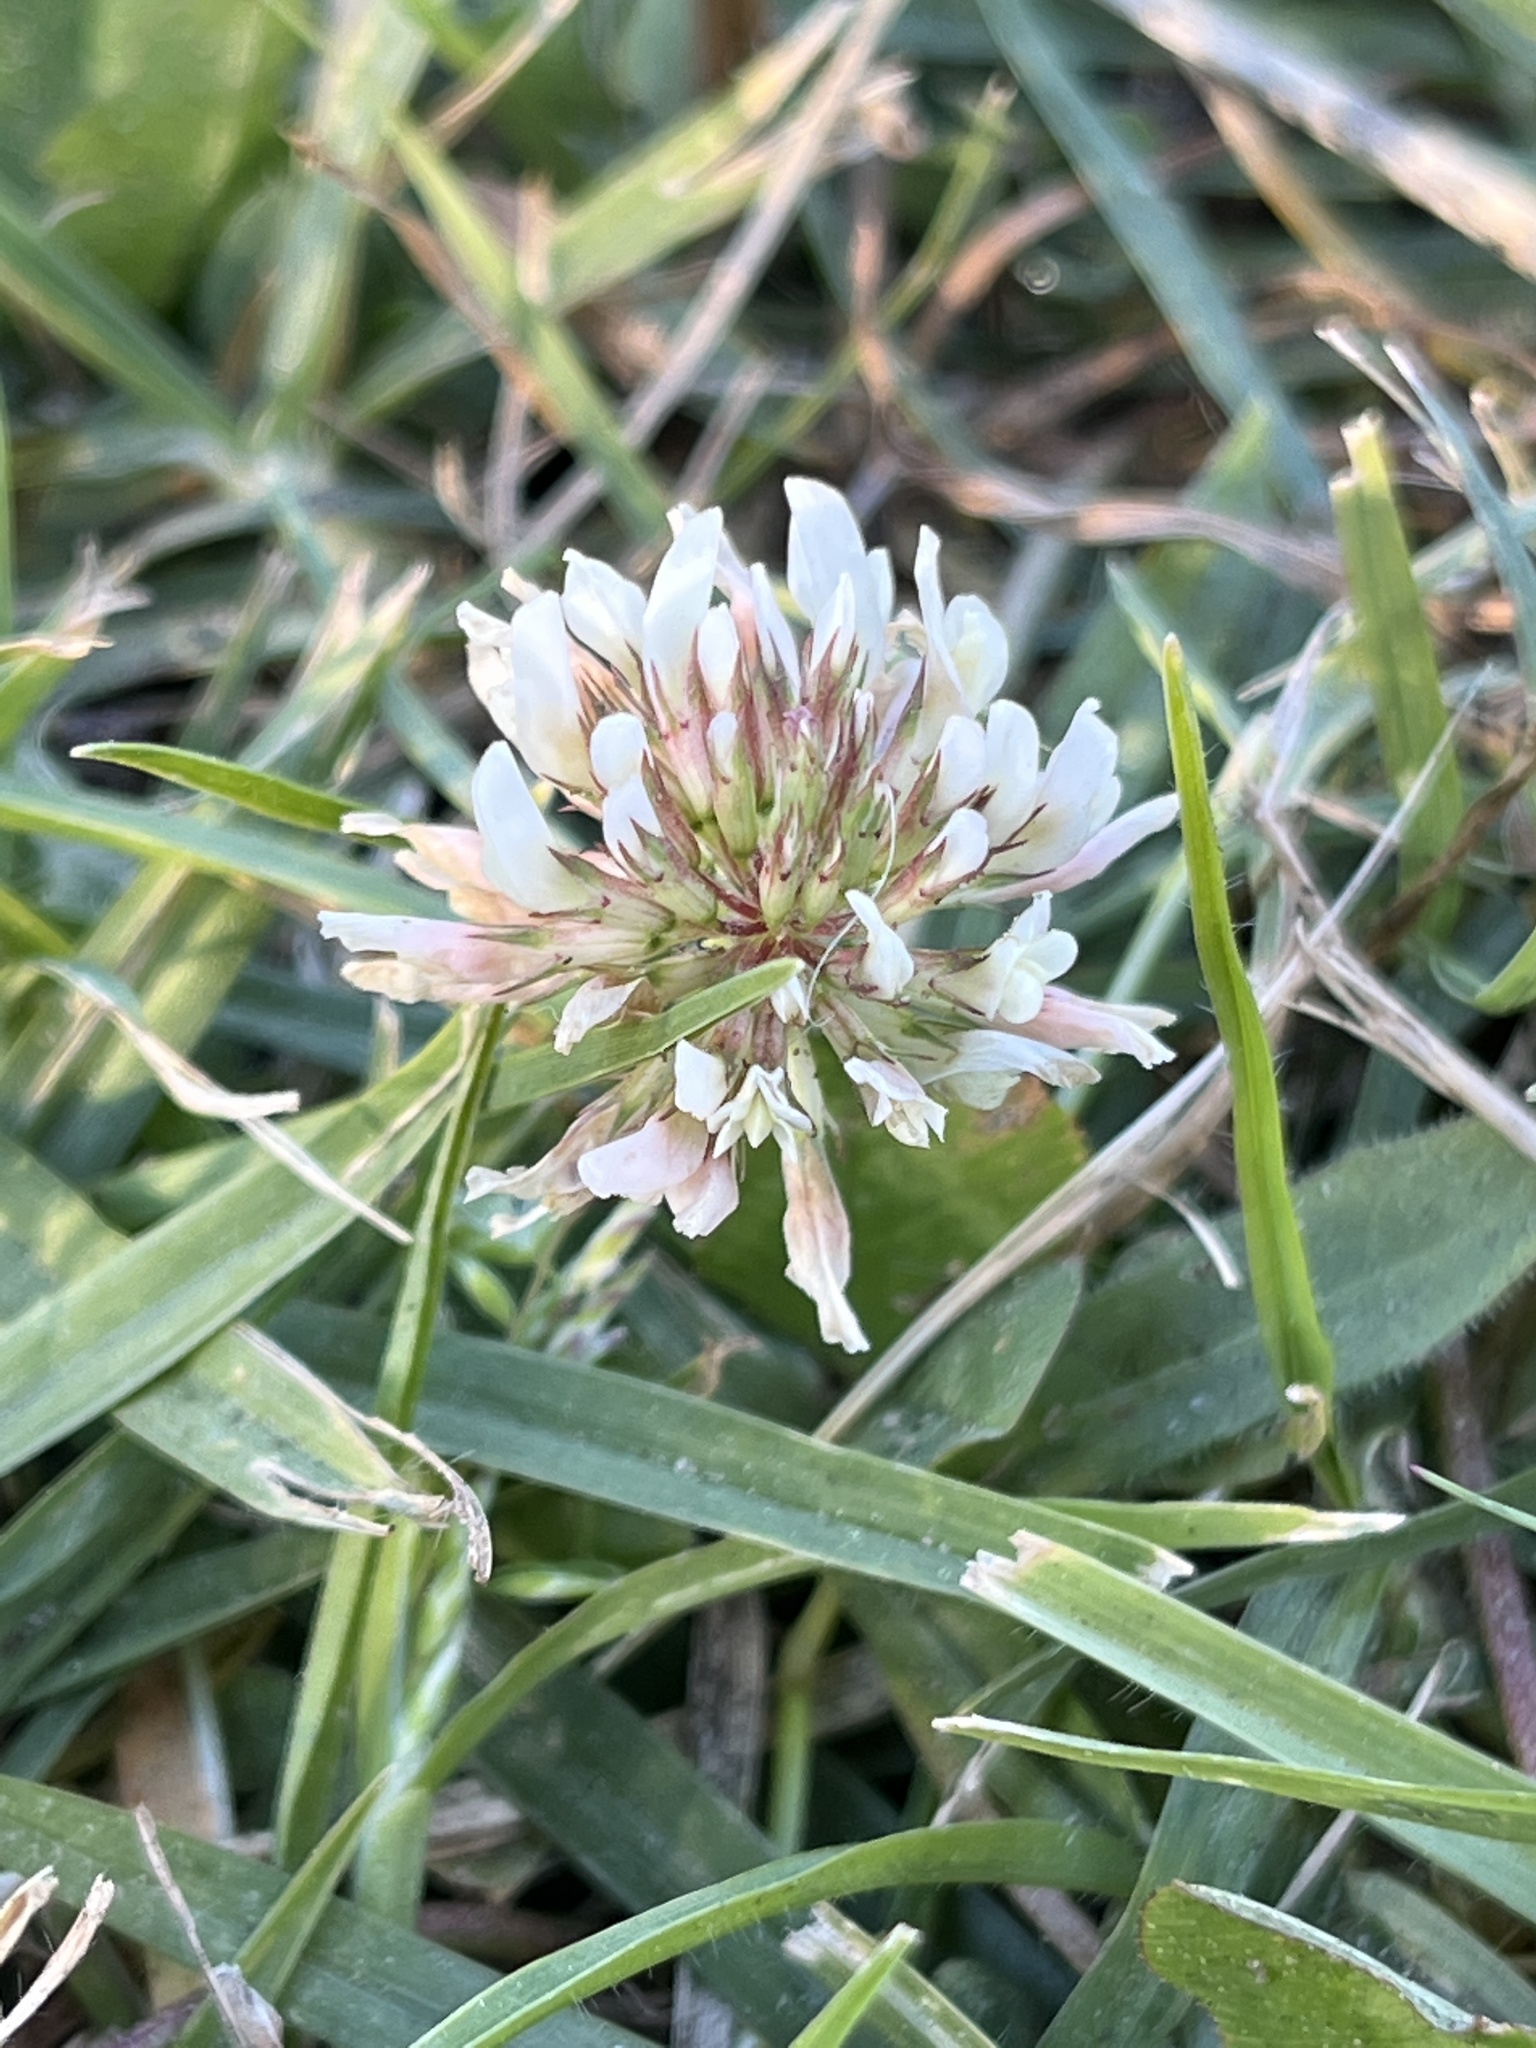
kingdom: Plantae
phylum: Tracheophyta
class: Magnoliopsida
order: Fabales
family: Fabaceae
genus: Trifolium
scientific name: Trifolium repens
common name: White clover
